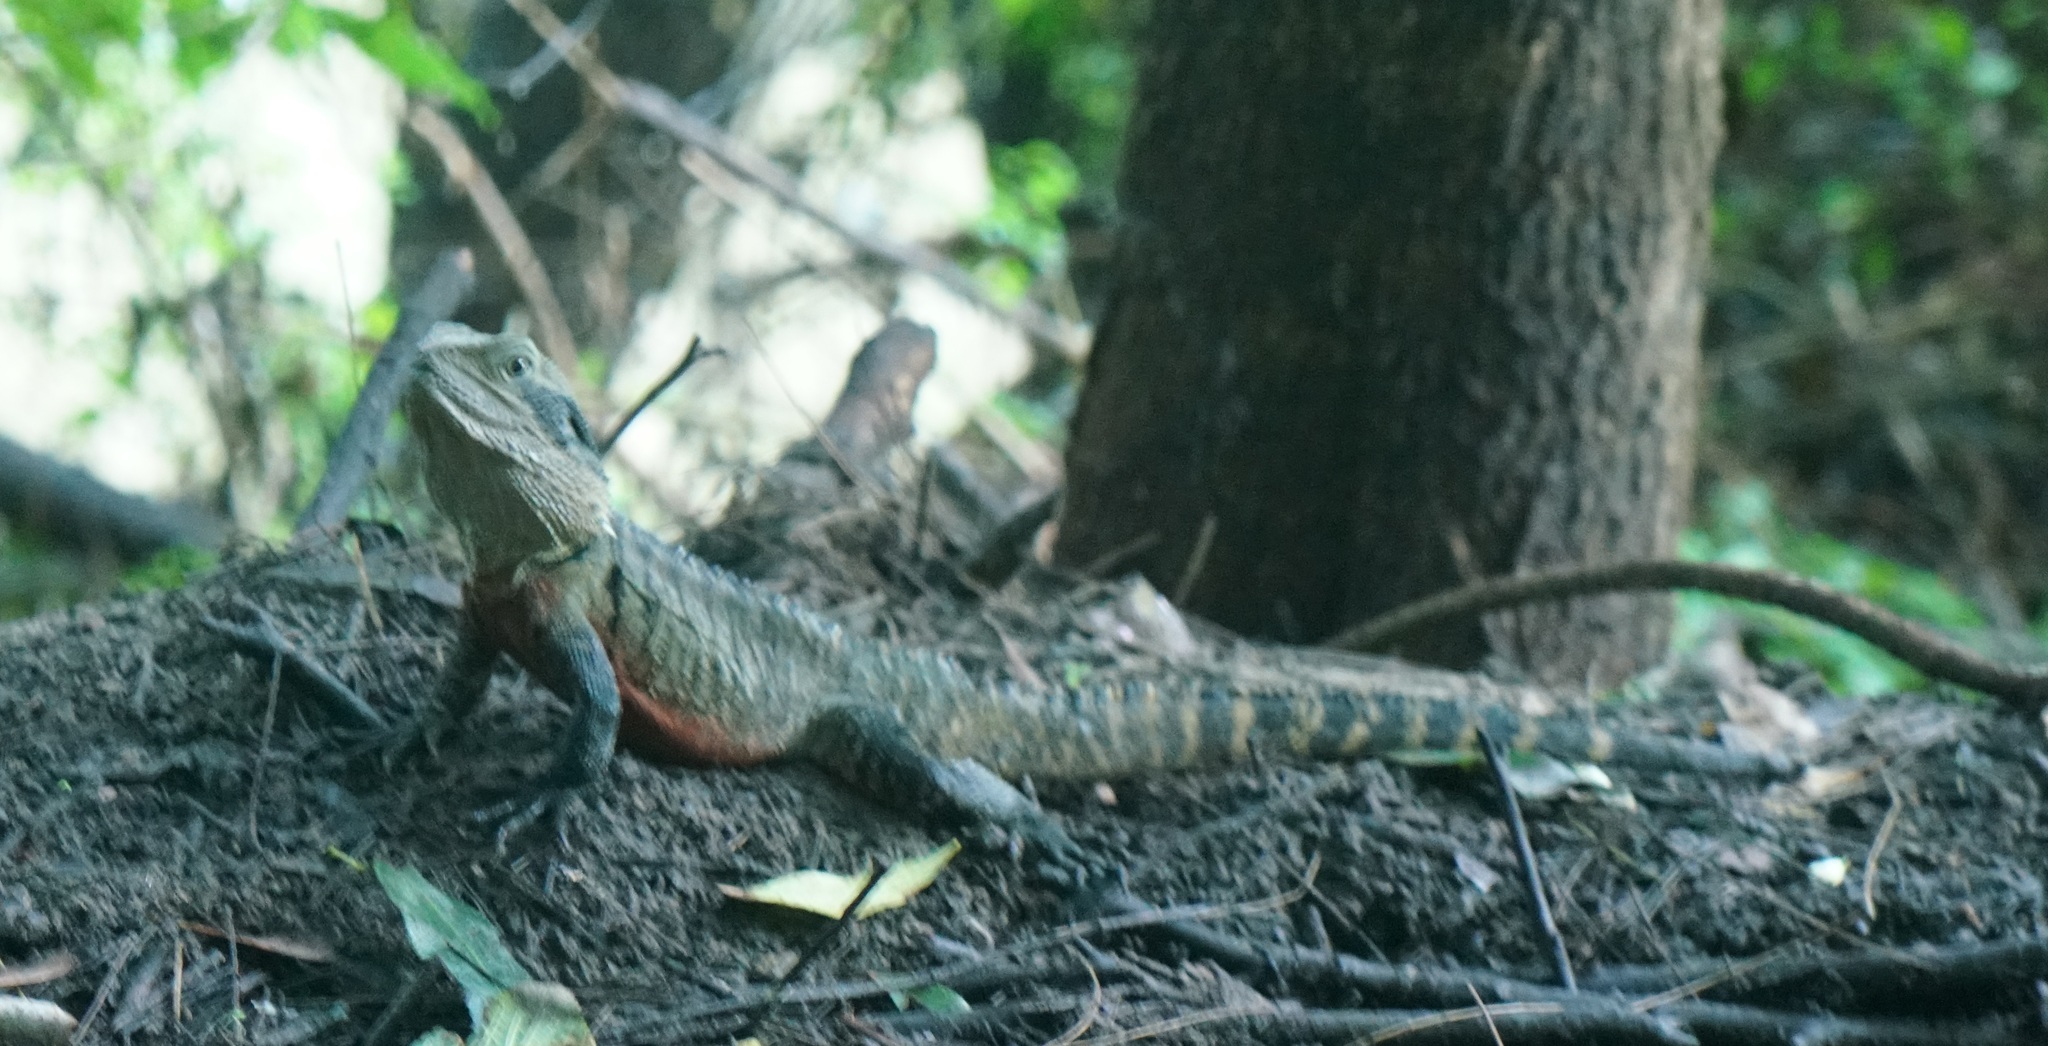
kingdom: Animalia
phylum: Chordata
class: Squamata
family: Agamidae
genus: Intellagama
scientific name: Intellagama lesueurii
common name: Eastern water dragon
